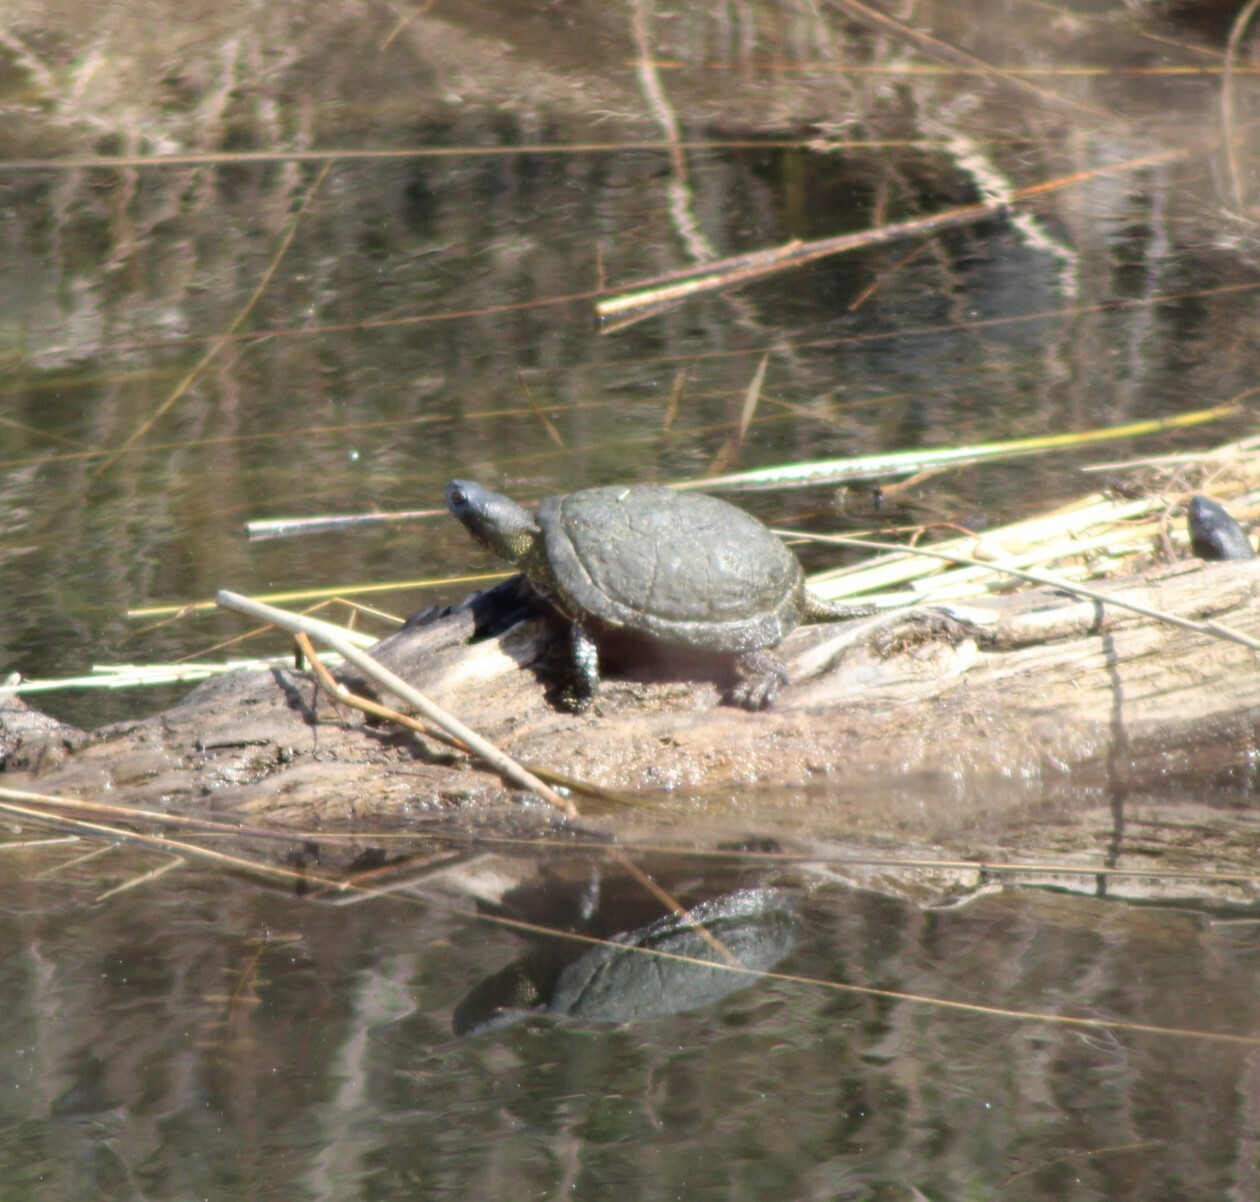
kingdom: Animalia
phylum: Chordata
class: Testudines
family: Emydidae
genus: Emys
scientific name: Emys orbicularis
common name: European pond turtle
